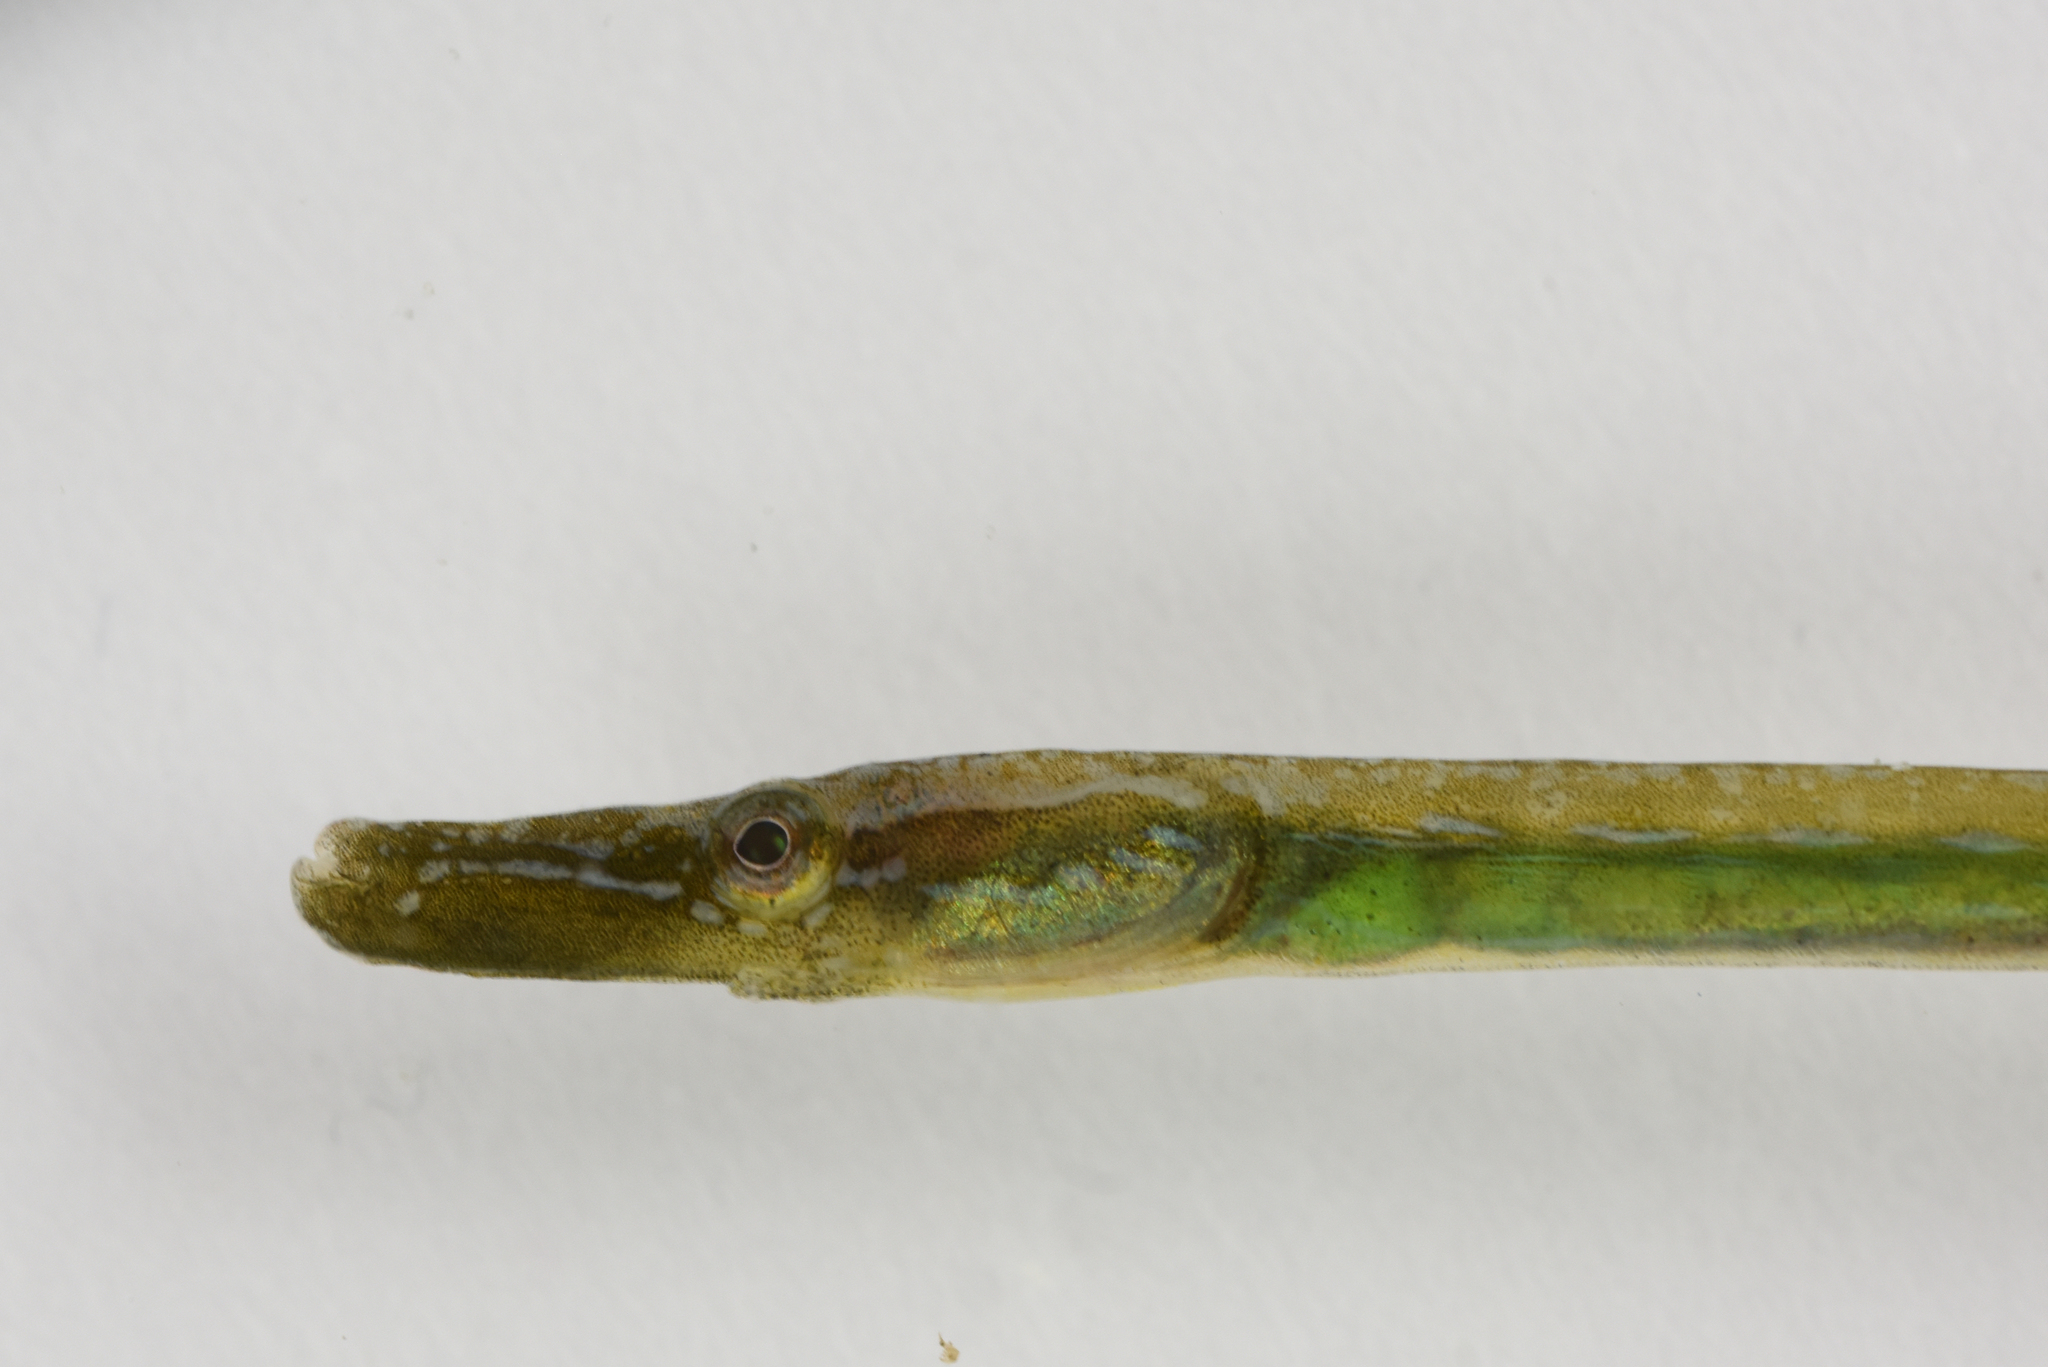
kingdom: Animalia
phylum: Chordata
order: Syngnathiformes
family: Syngnathidae
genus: Nerophis
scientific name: Nerophis ophidion
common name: Straight-nosed pipefish
